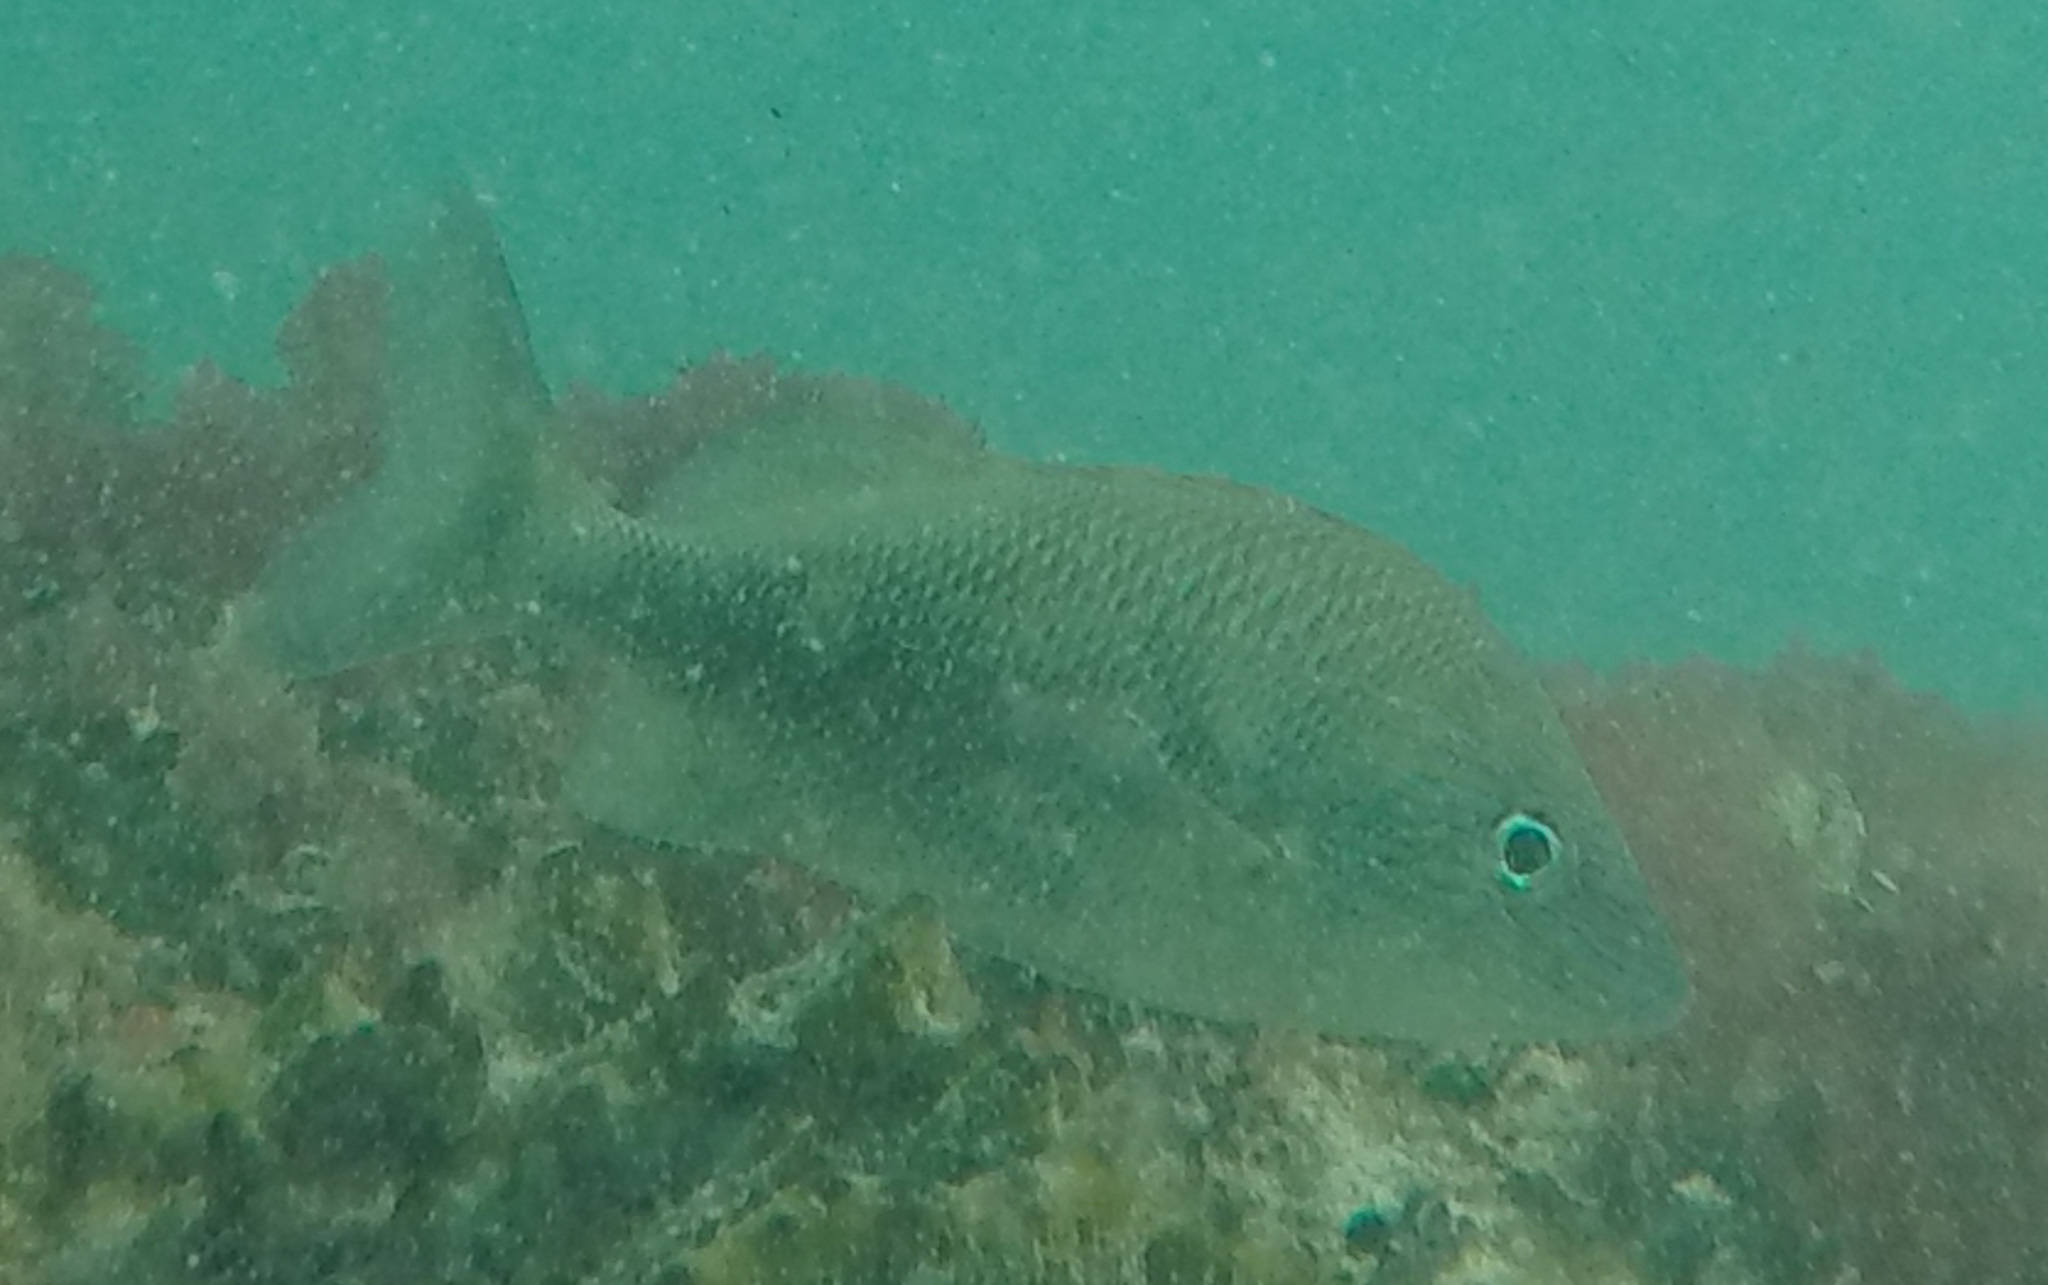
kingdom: Animalia
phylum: Chordata
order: Perciformes
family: Haemulidae
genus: Haemulon
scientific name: Haemulon plumierii
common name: White grunt
